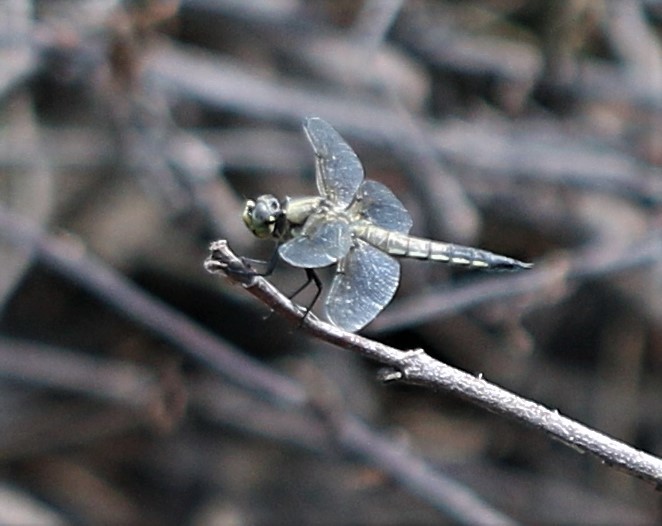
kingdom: Animalia
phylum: Arthropoda
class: Insecta
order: Odonata
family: Libellulidae
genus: Libellula
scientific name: Libellula quadrimaculata
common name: Four-spotted chaser
